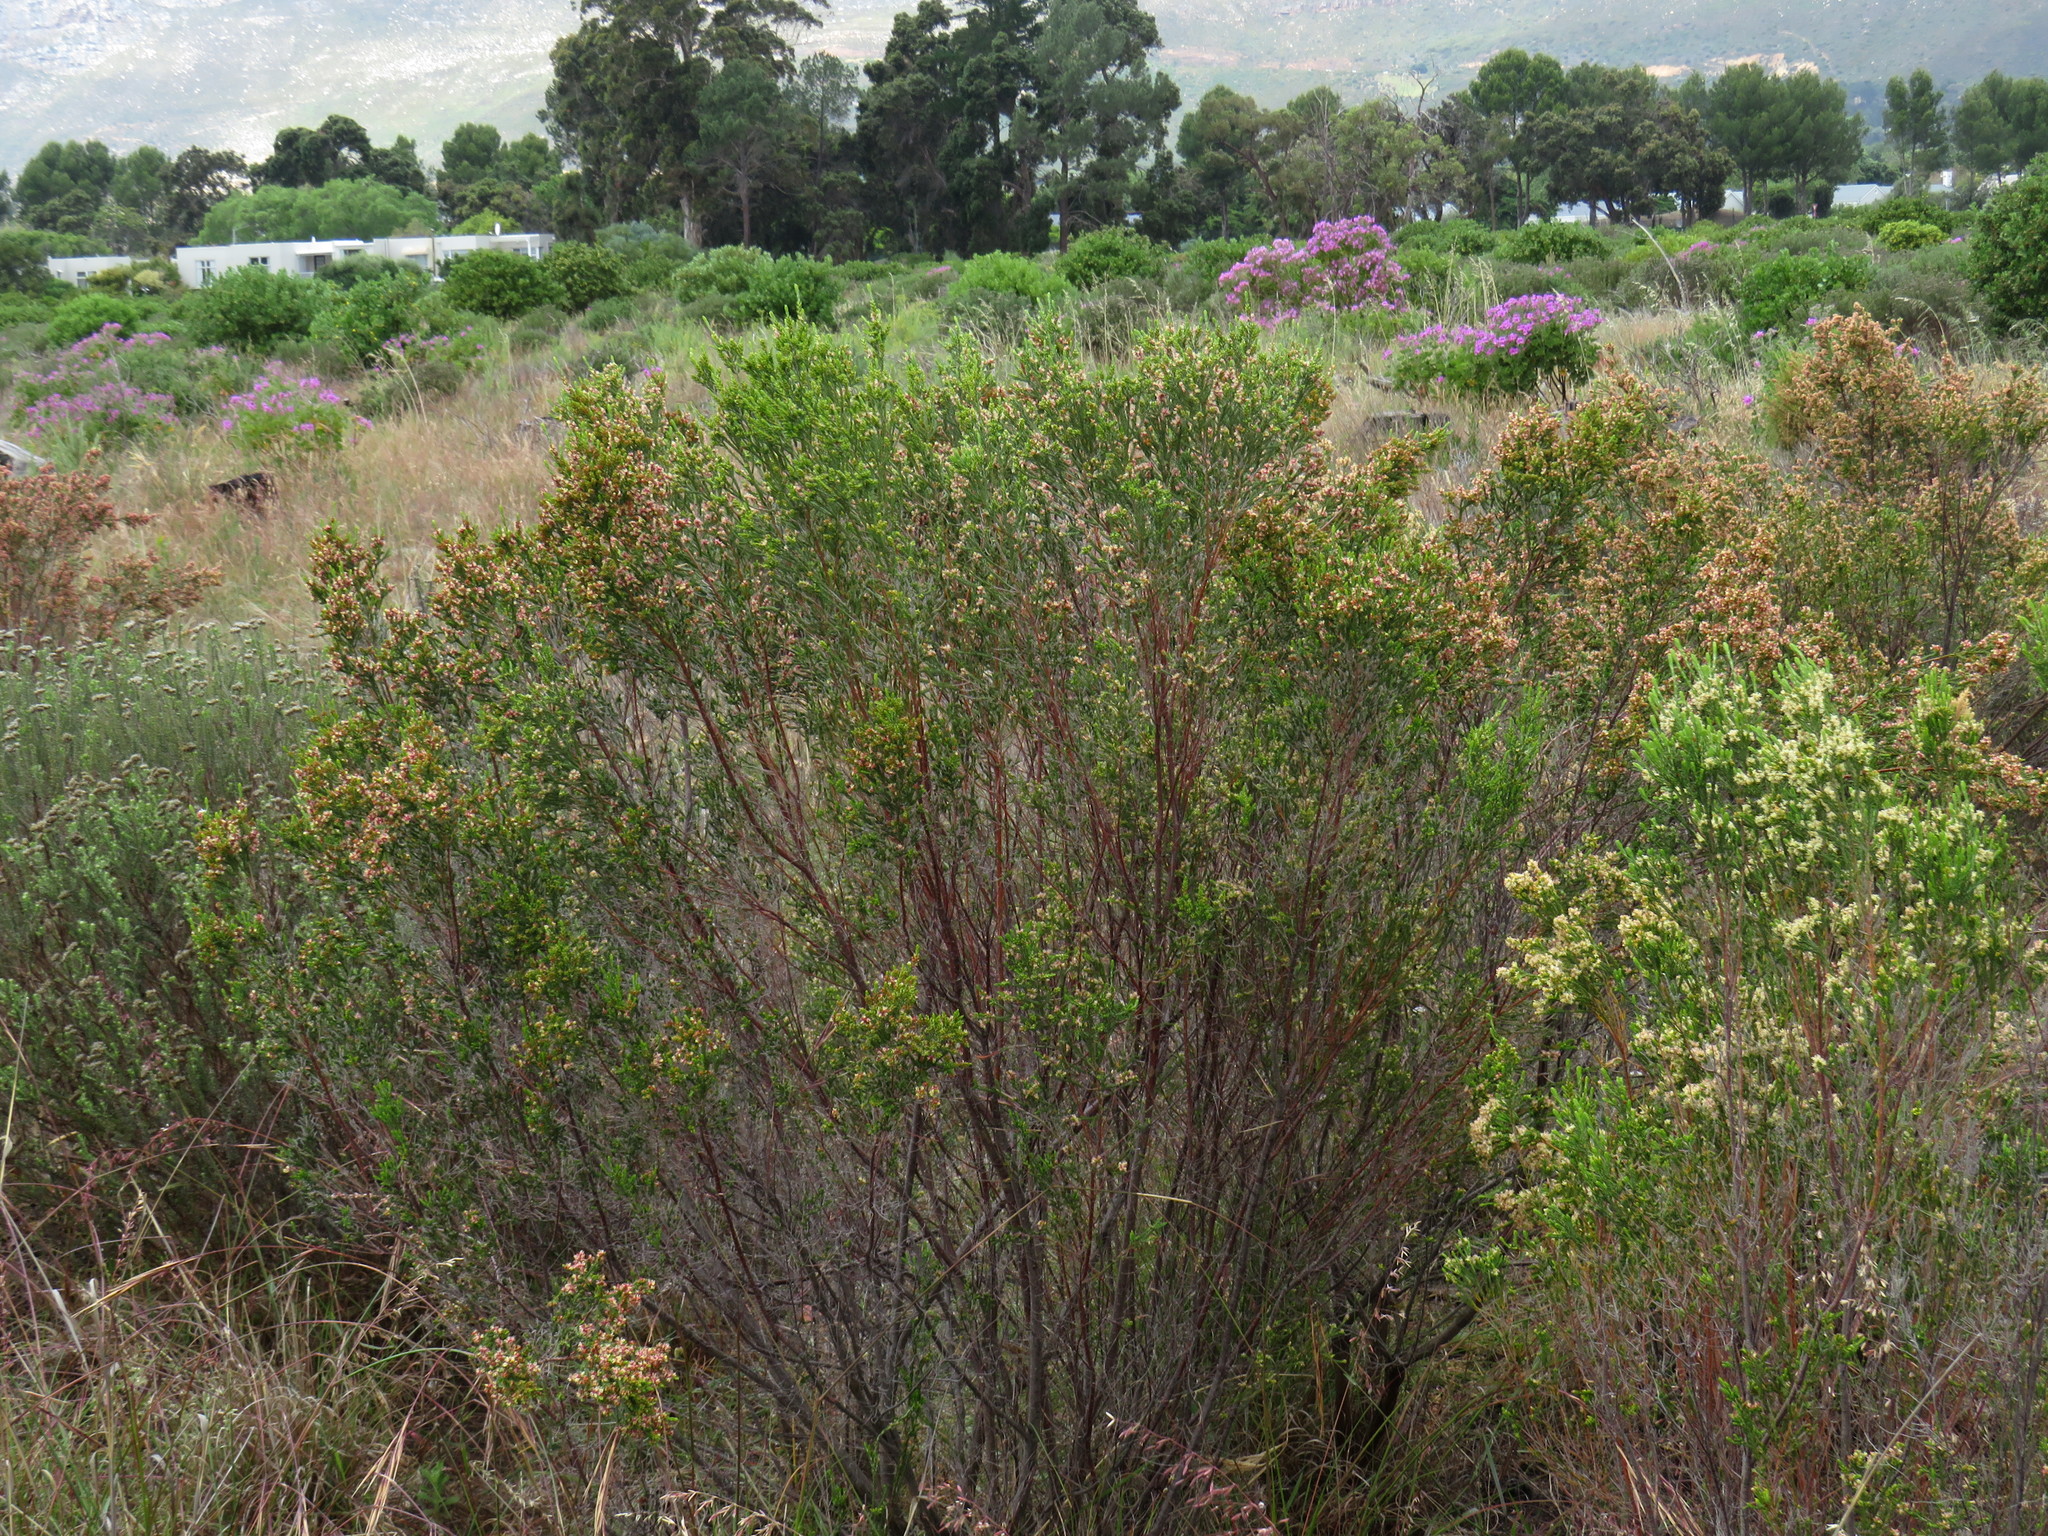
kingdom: Plantae
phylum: Tracheophyta
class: Magnoliopsida
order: Malvales
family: Thymelaeaceae
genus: Passerina
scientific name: Passerina corymbosa
